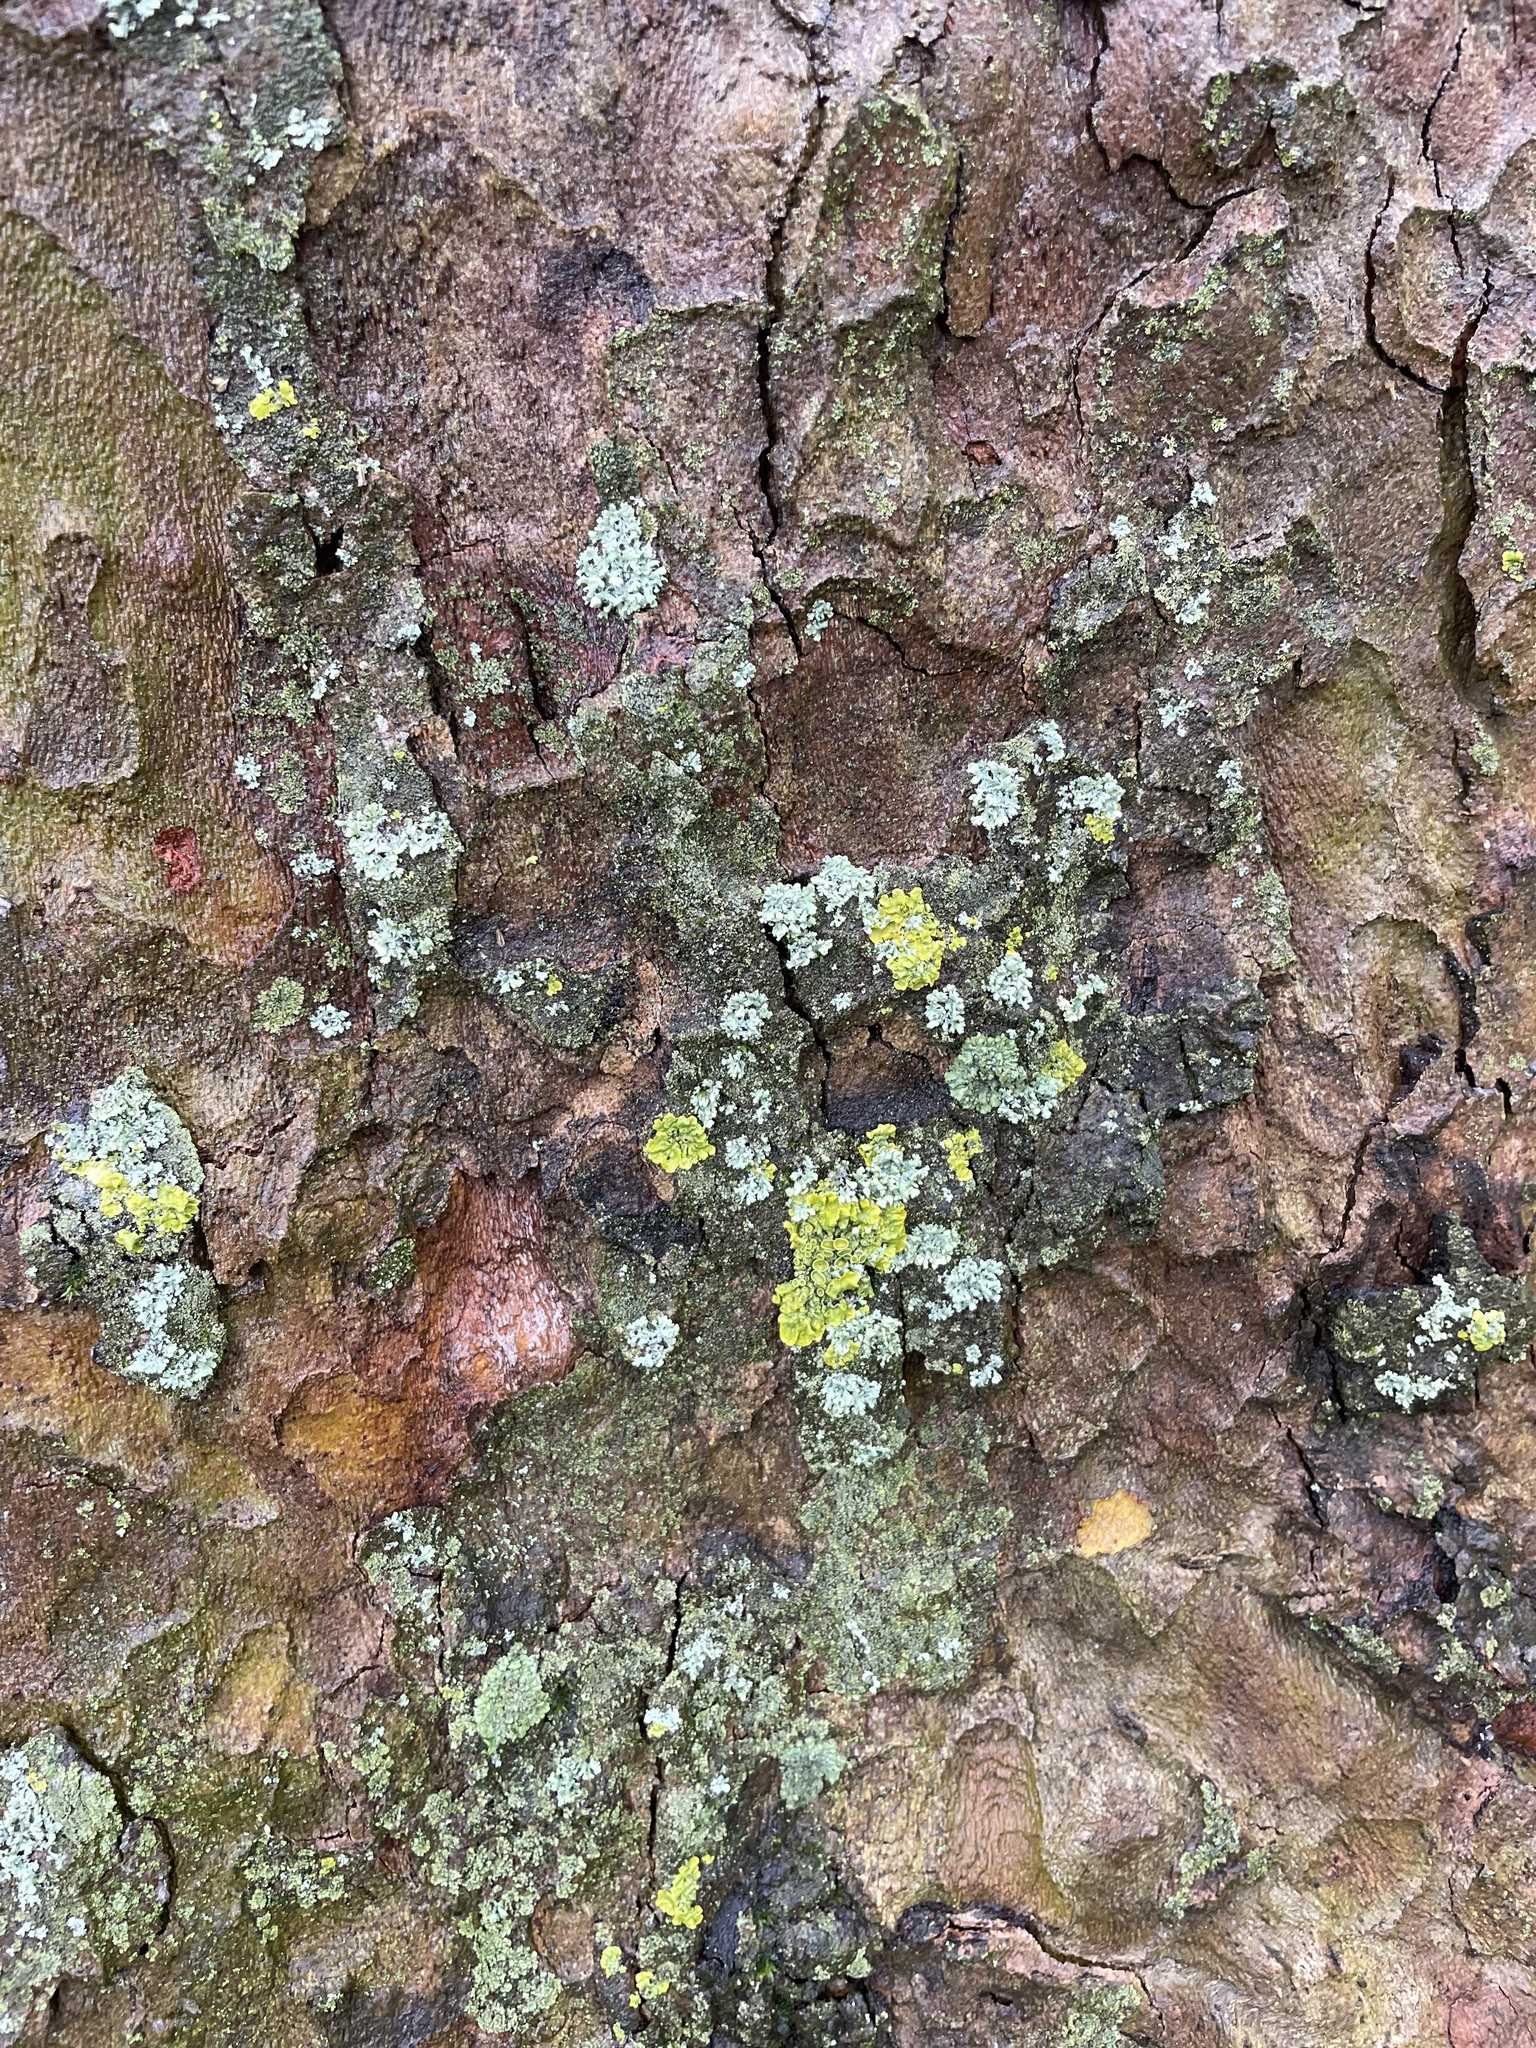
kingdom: Fungi
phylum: Ascomycota
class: Lecanoromycetes
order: Teloschistales
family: Teloschistaceae
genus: Xanthoria
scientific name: Xanthoria parietina
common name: Common orange lichen
